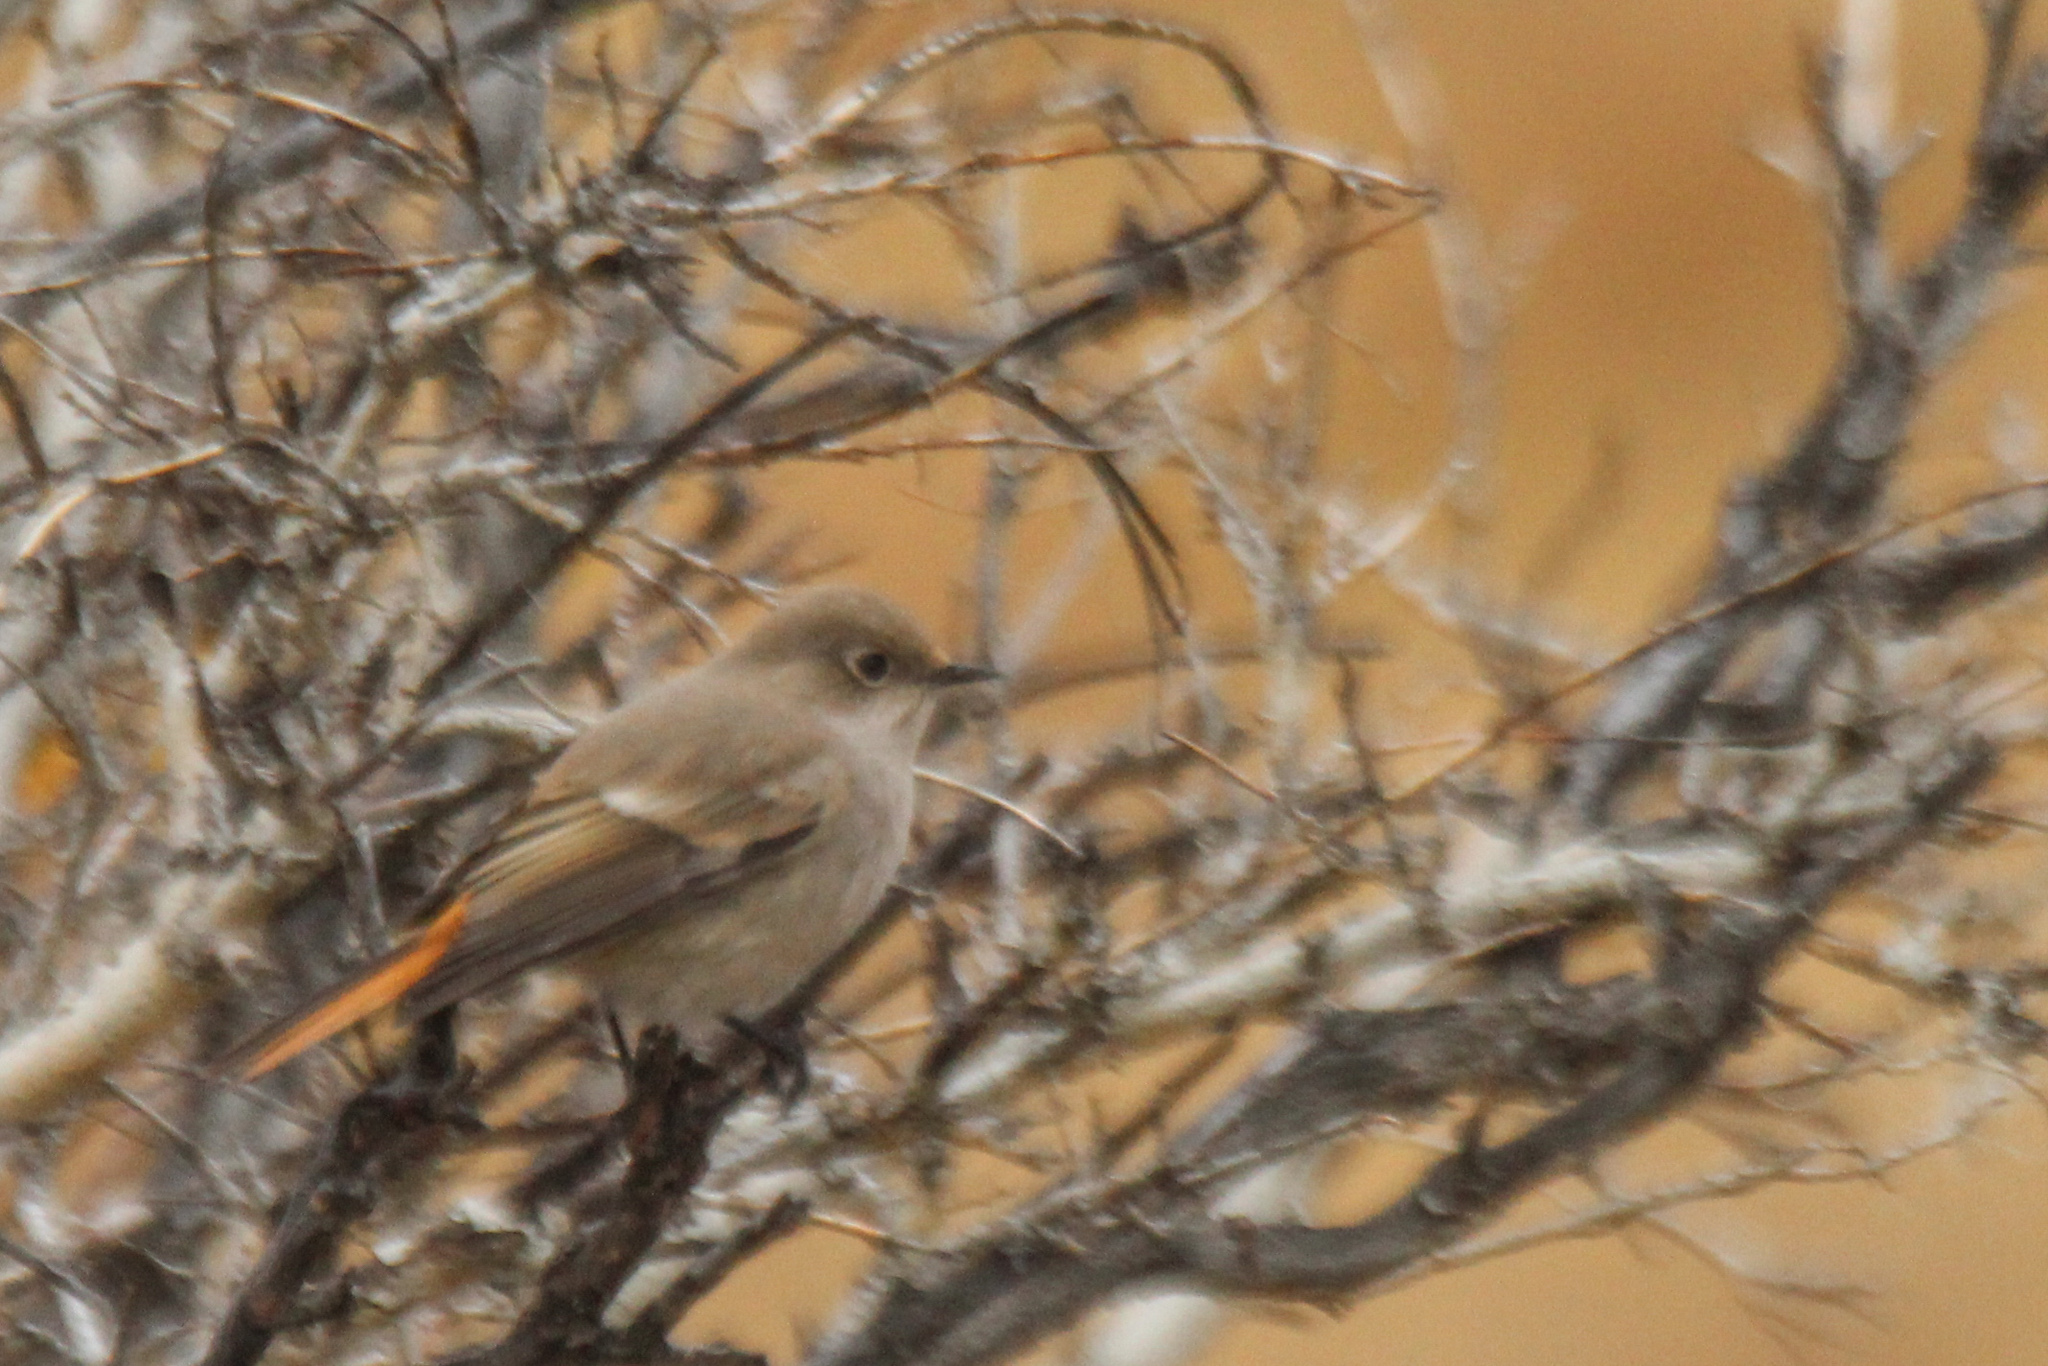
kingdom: Animalia
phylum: Chordata
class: Aves
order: Passeriformes
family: Muscicapidae
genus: Phoenicurus
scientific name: Phoenicurus erythronotus
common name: Eversmann's redstart
